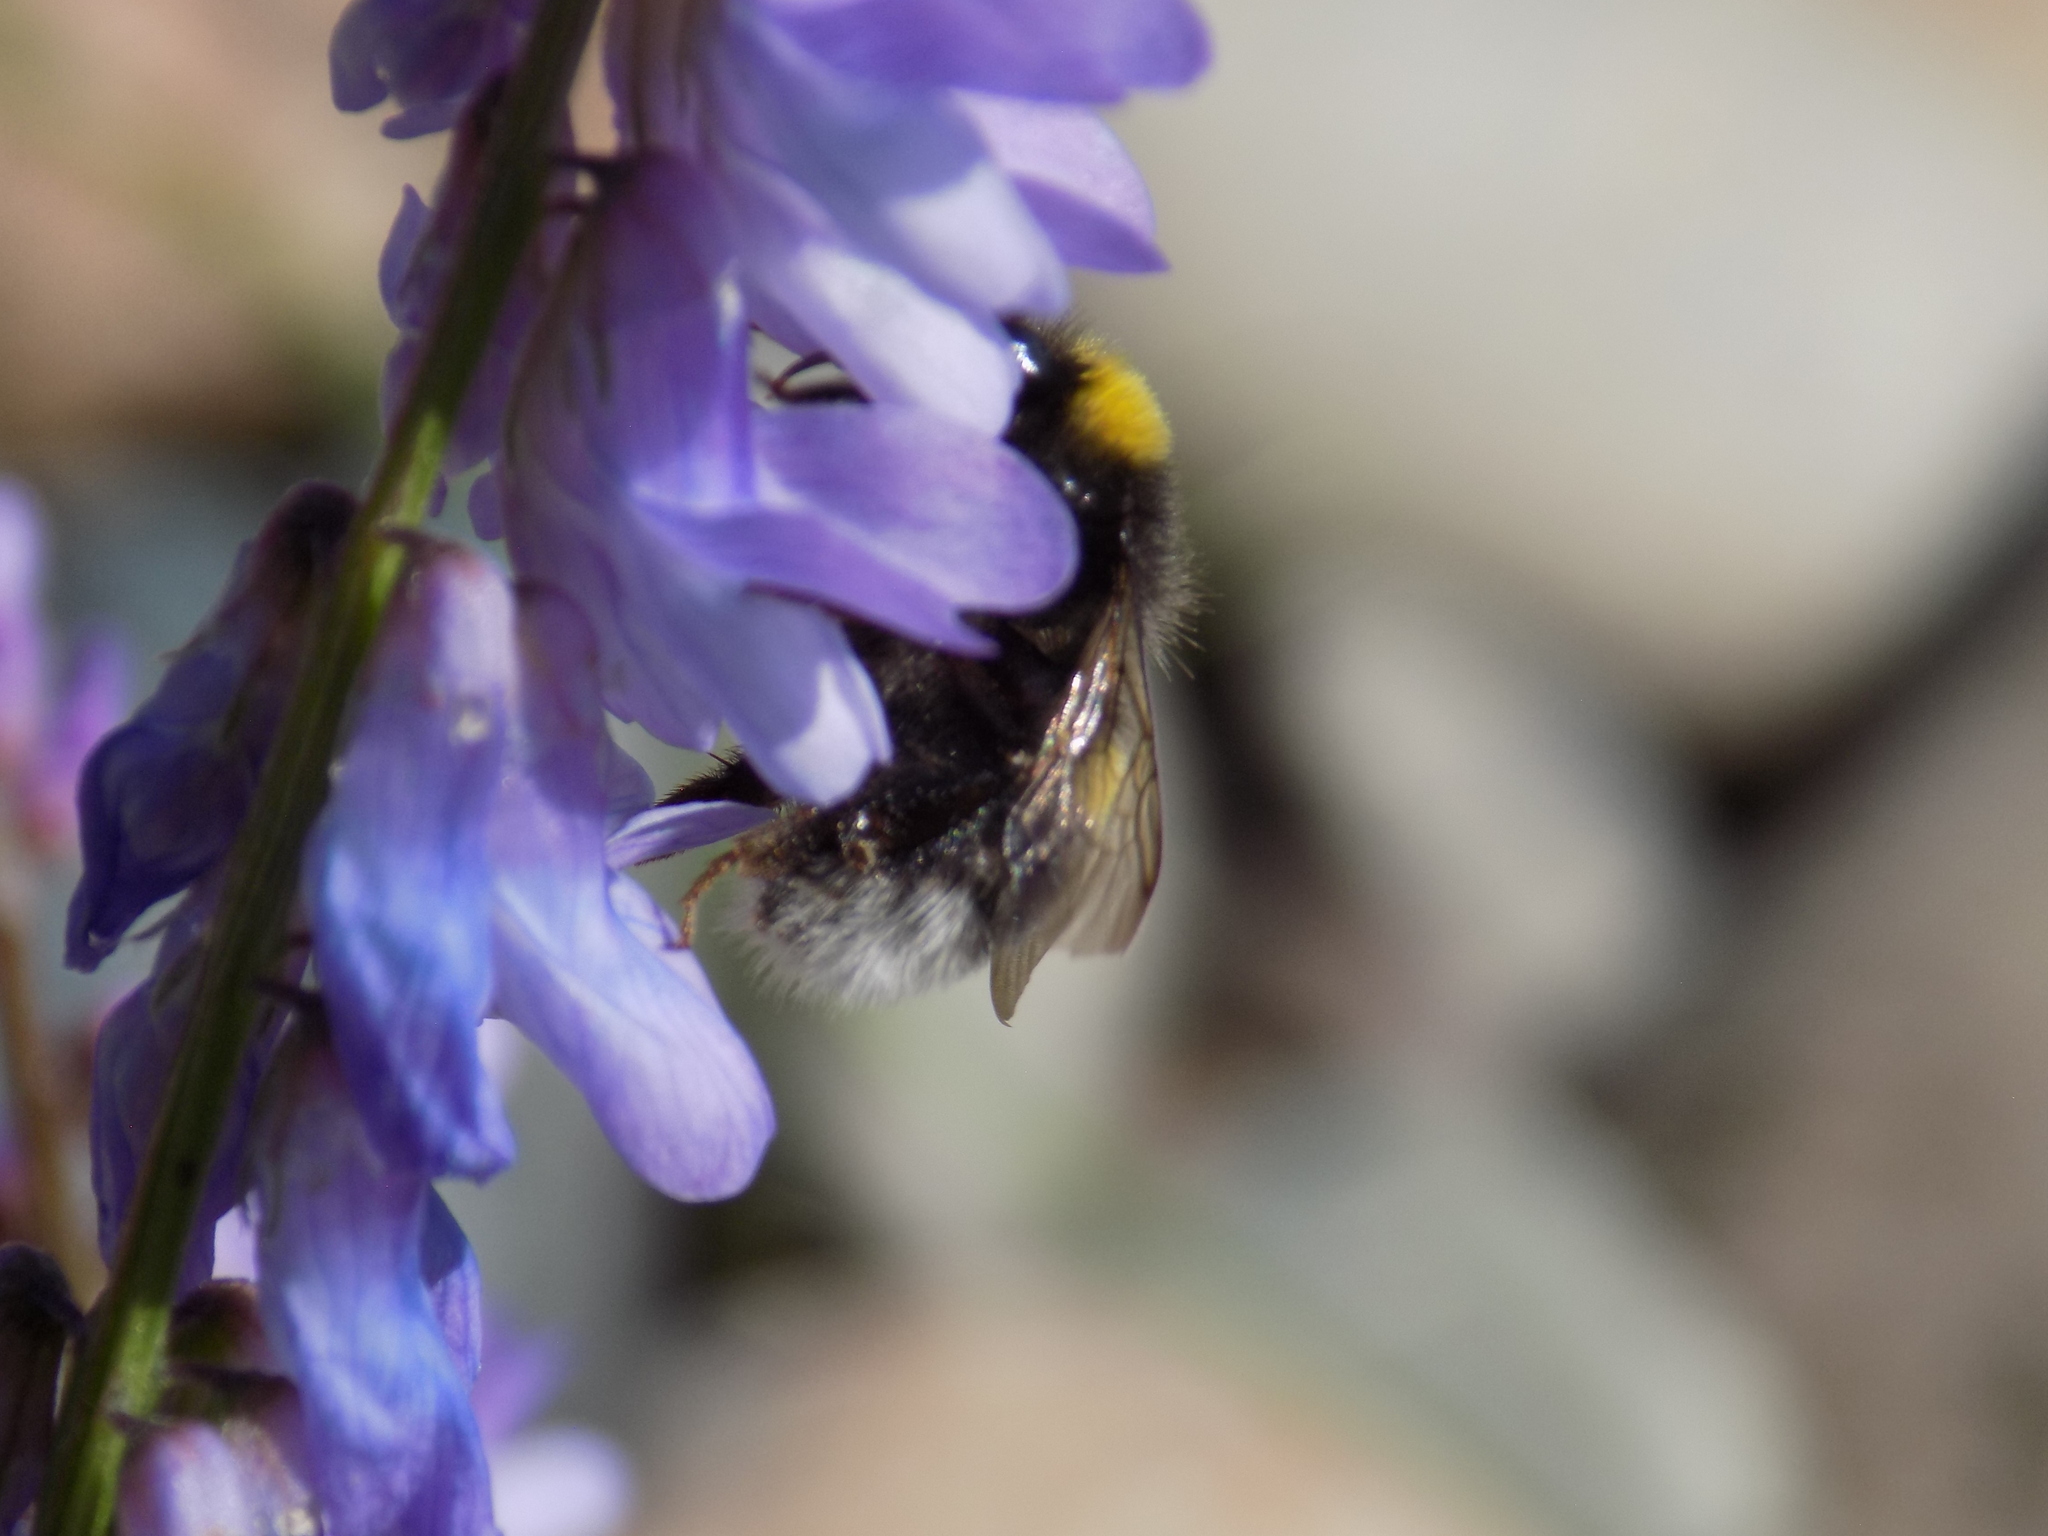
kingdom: Animalia
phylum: Arthropoda
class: Insecta
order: Hymenoptera
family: Apidae
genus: Bombus
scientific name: Bombus
